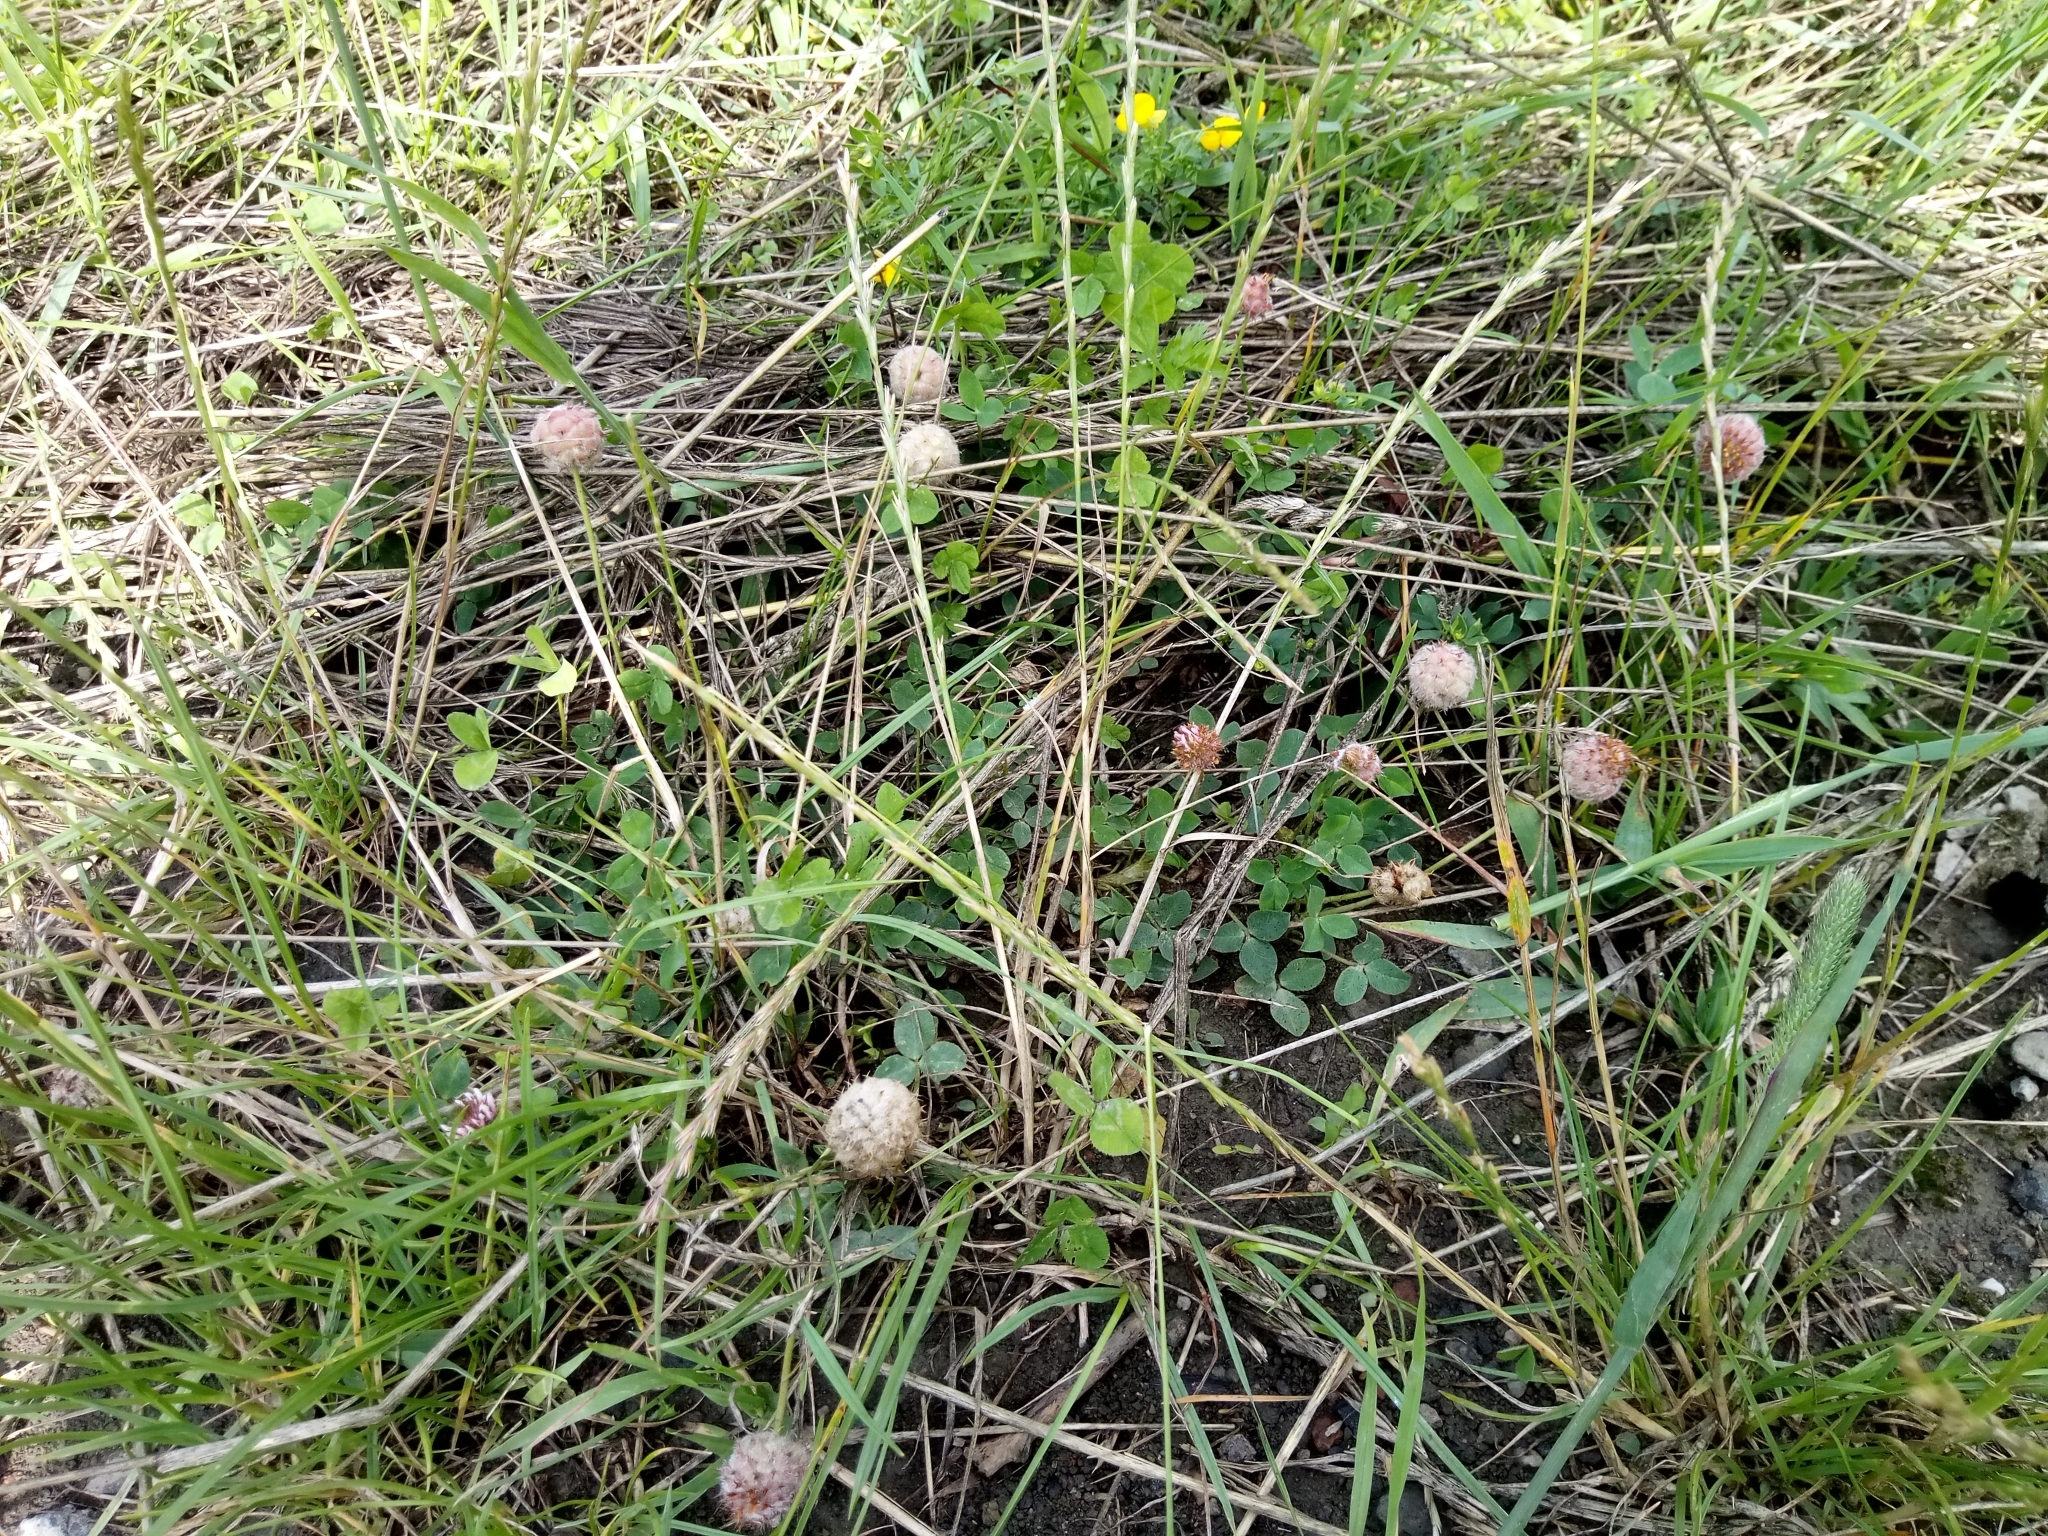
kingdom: Plantae
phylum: Tracheophyta
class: Magnoliopsida
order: Fabales
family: Fabaceae
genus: Trifolium
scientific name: Trifolium fragiferum
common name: Strawberry clover
